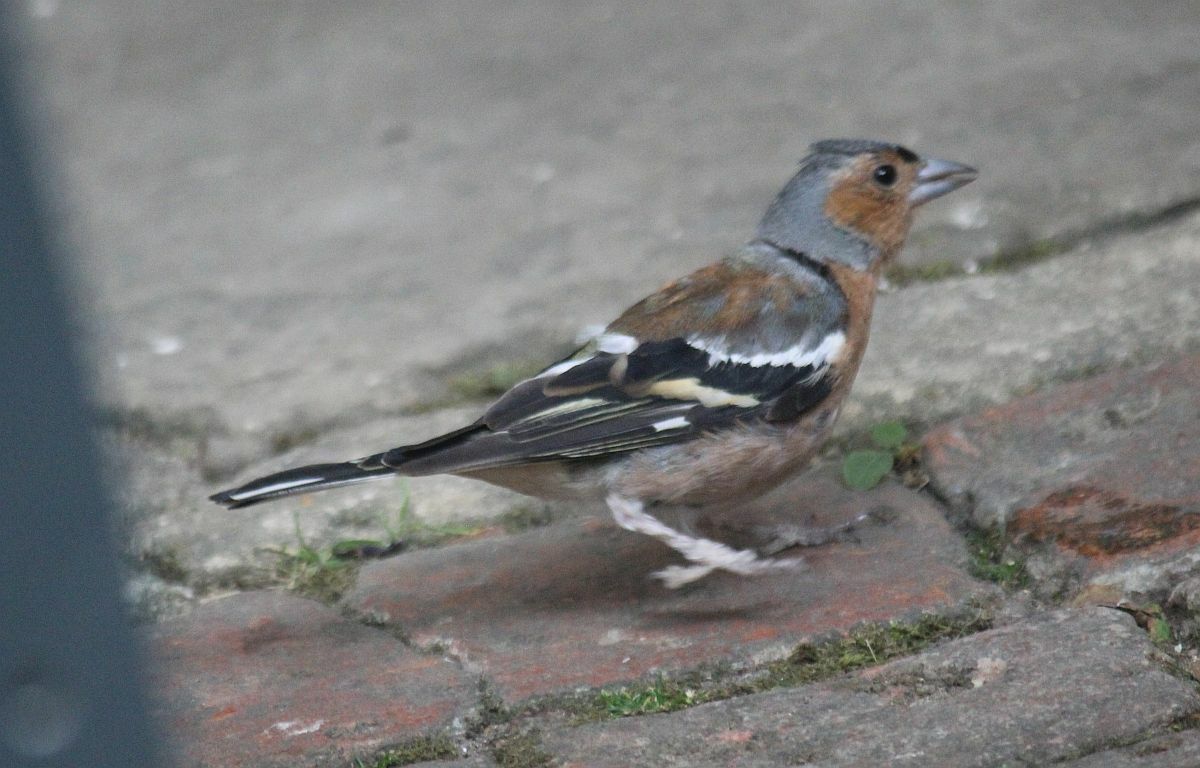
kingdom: Animalia
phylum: Chordata
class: Aves
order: Passeriformes
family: Fringillidae
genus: Fringilla
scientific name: Fringilla coelebs
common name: Common chaffinch
